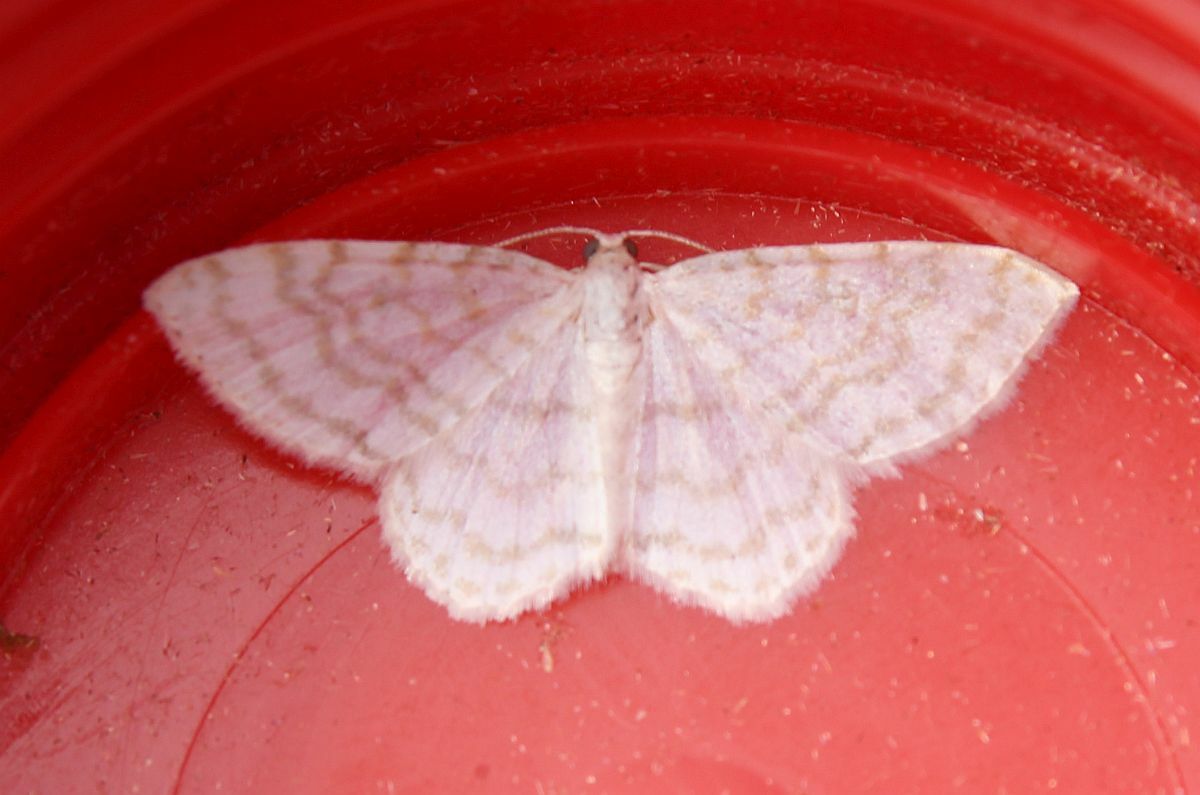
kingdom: Animalia
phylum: Arthropoda
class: Insecta
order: Lepidoptera
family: Geometridae
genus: Asthena
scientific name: Asthena albulata
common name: Small white wave
